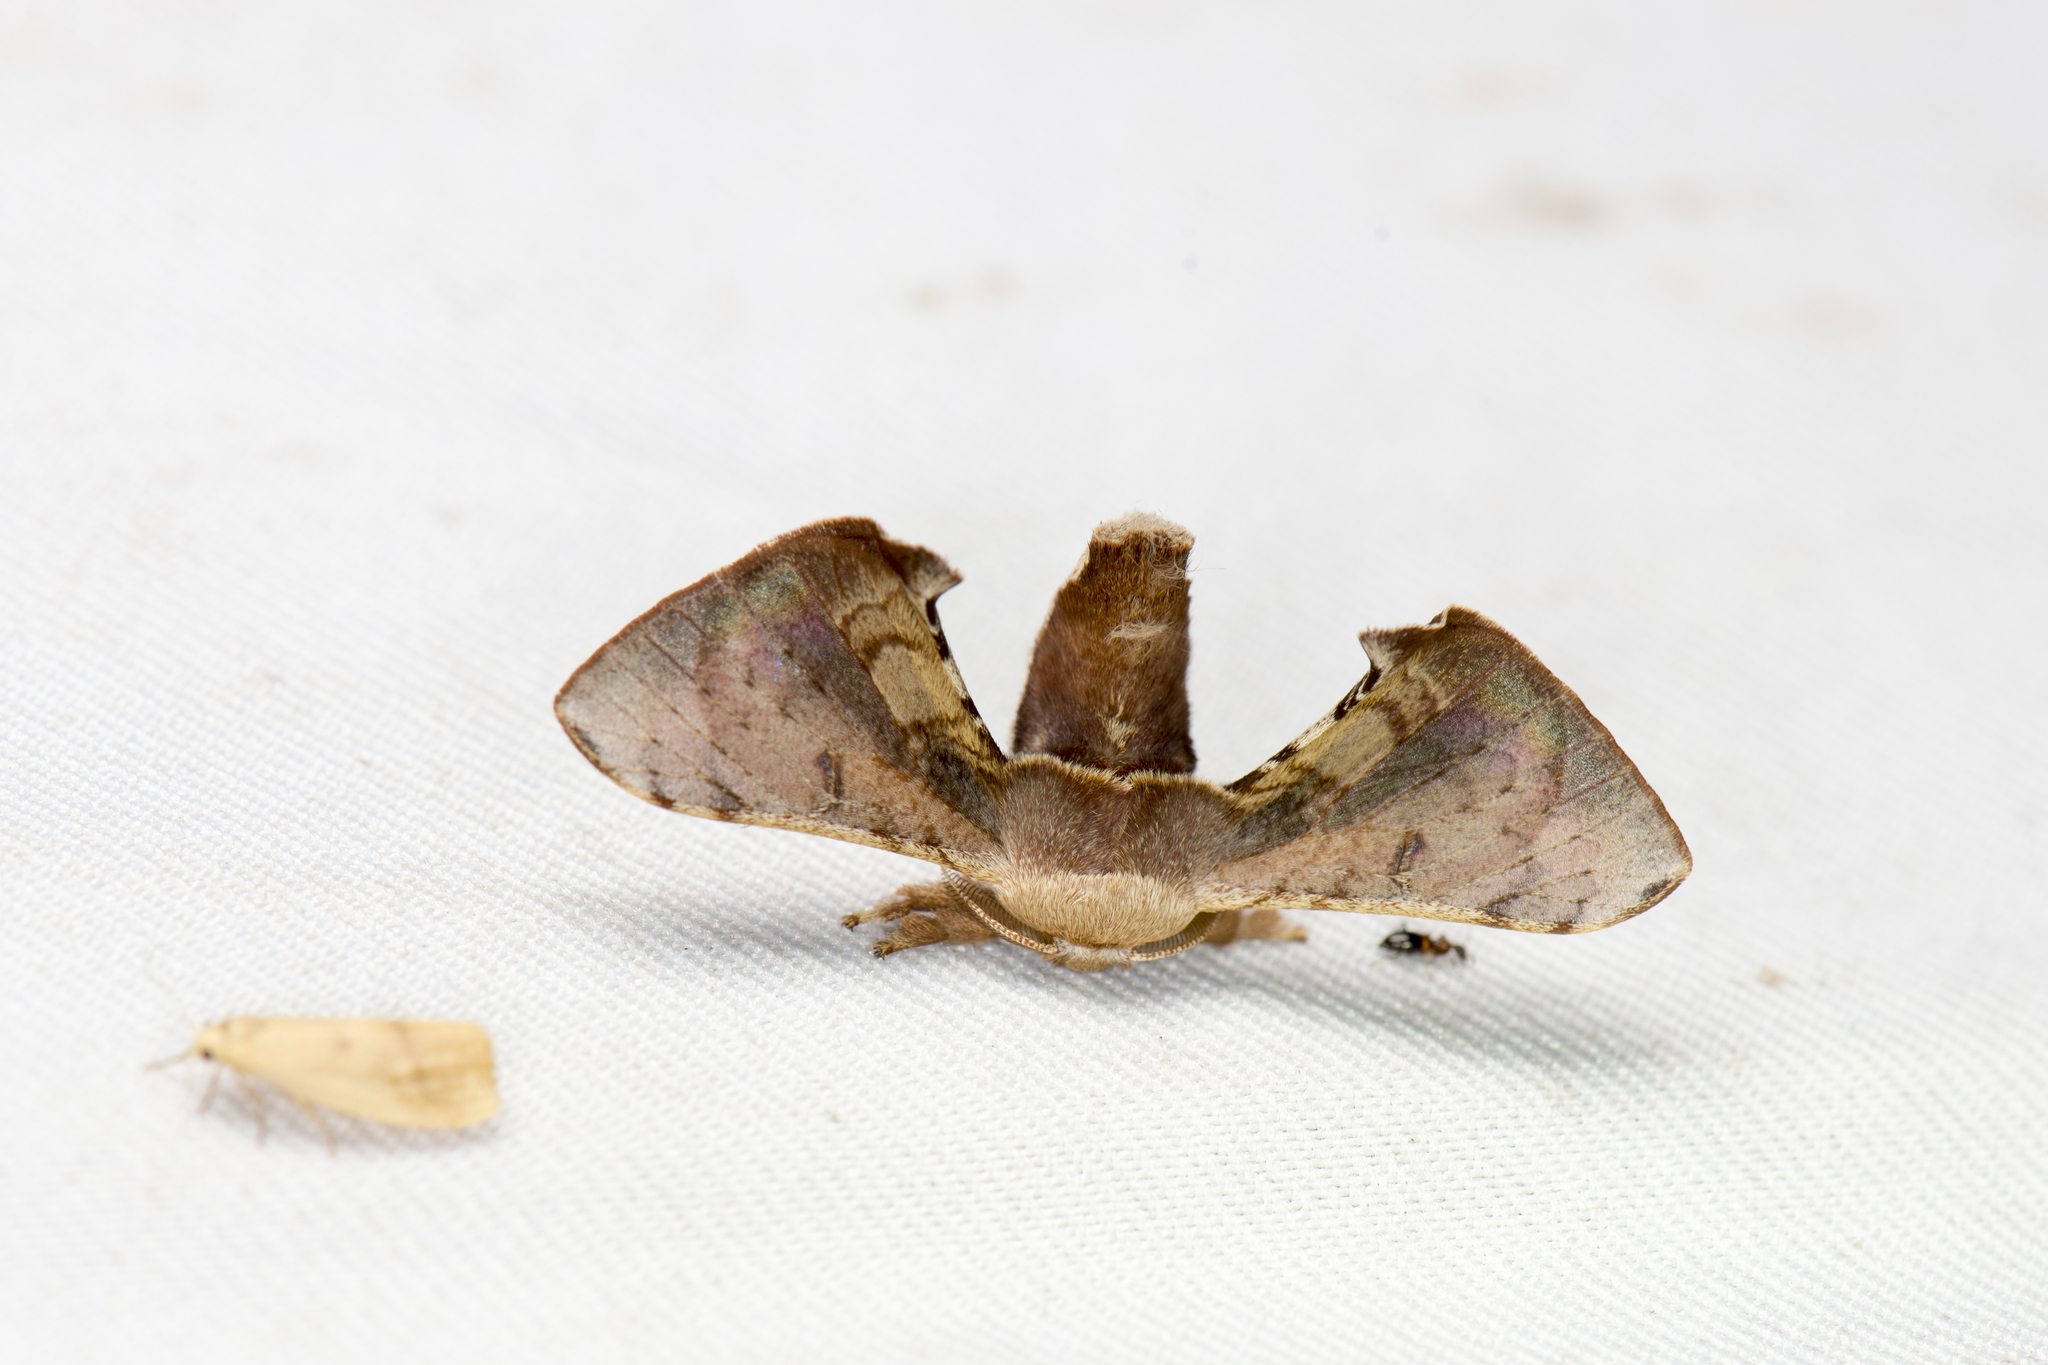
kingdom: Animalia
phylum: Arthropoda
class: Insecta
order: Lepidoptera
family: Bombycidae
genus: Triuncina
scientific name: Triuncina brunnea
